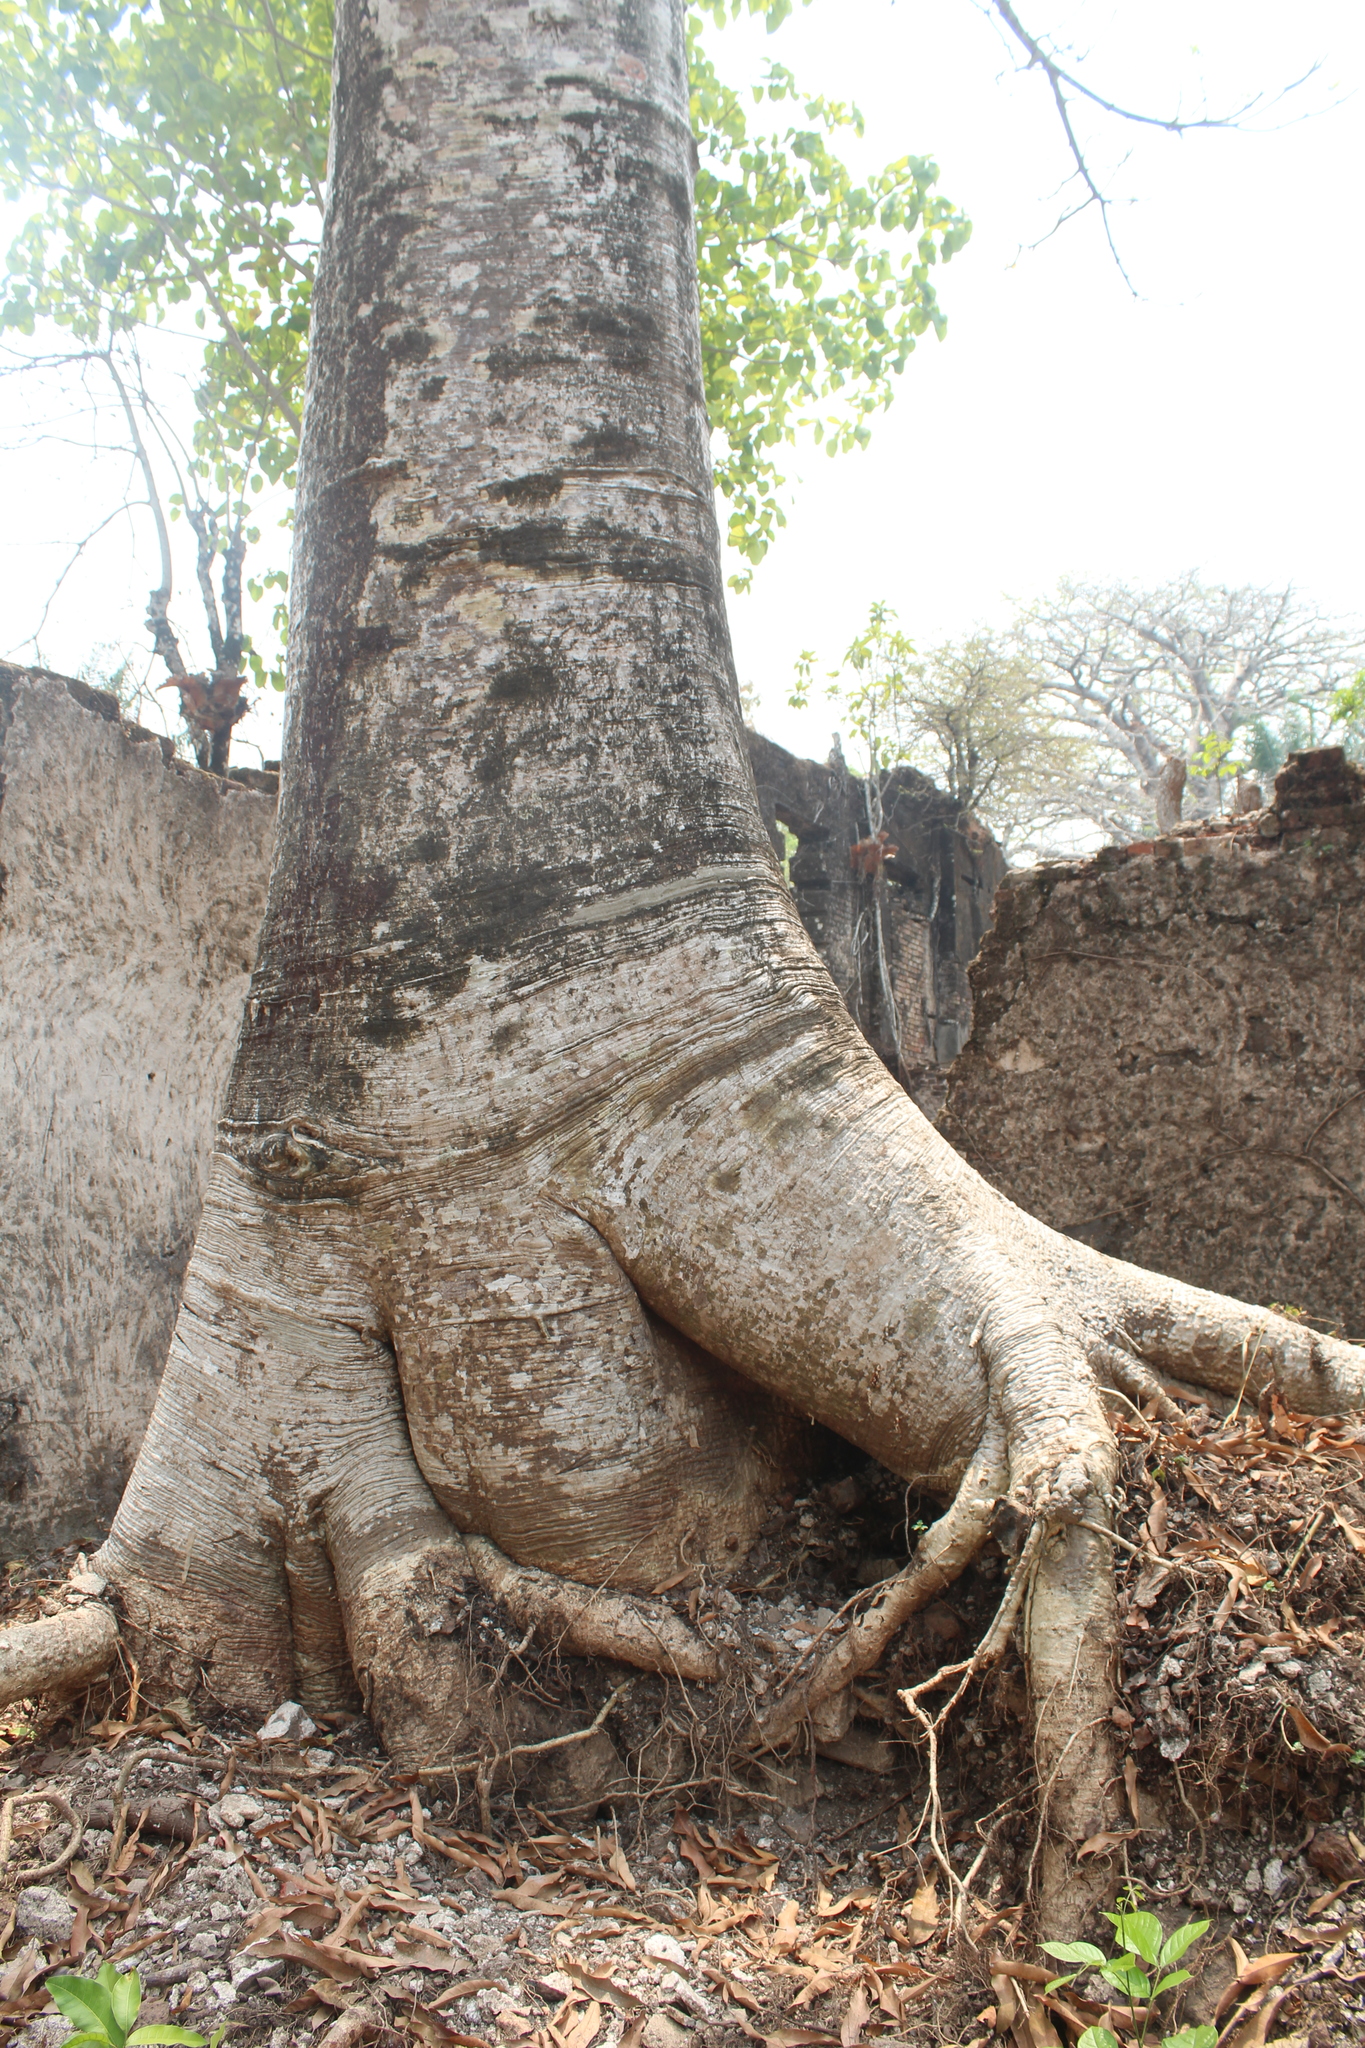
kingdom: Plantae
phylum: Tracheophyta
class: Magnoliopsida
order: Malvales
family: Malvaceae
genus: Adansonia
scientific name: Adansonia digitata
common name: Dead-rat-tree
